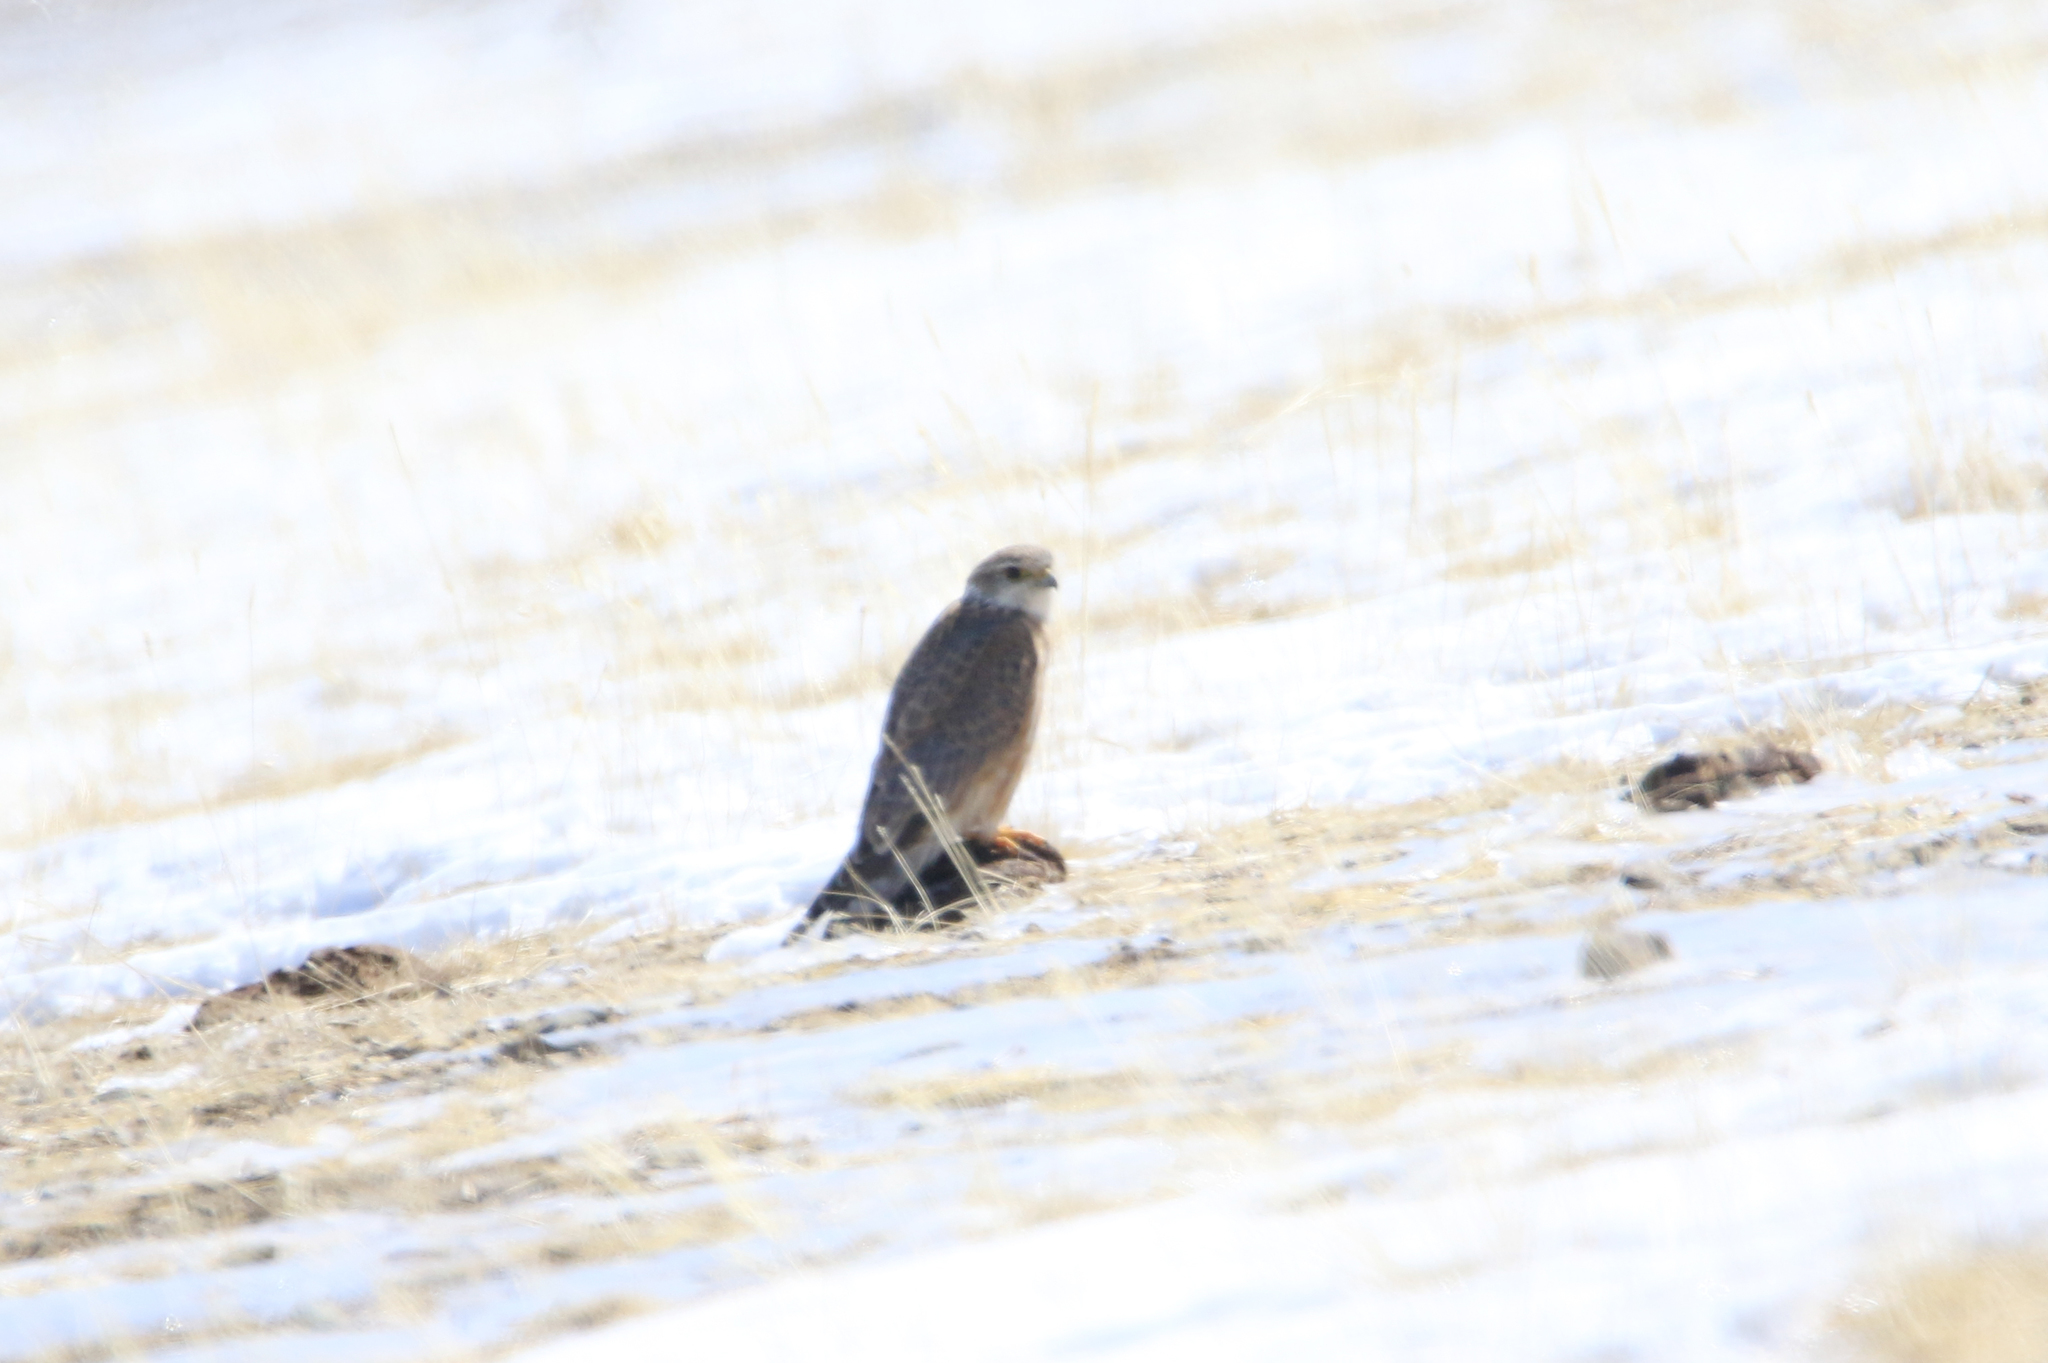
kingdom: Animalia
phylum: Chordata
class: Aves
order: Falconiformes
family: Falconidae
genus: Falco
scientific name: Falco cherrug
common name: Saker falcon
